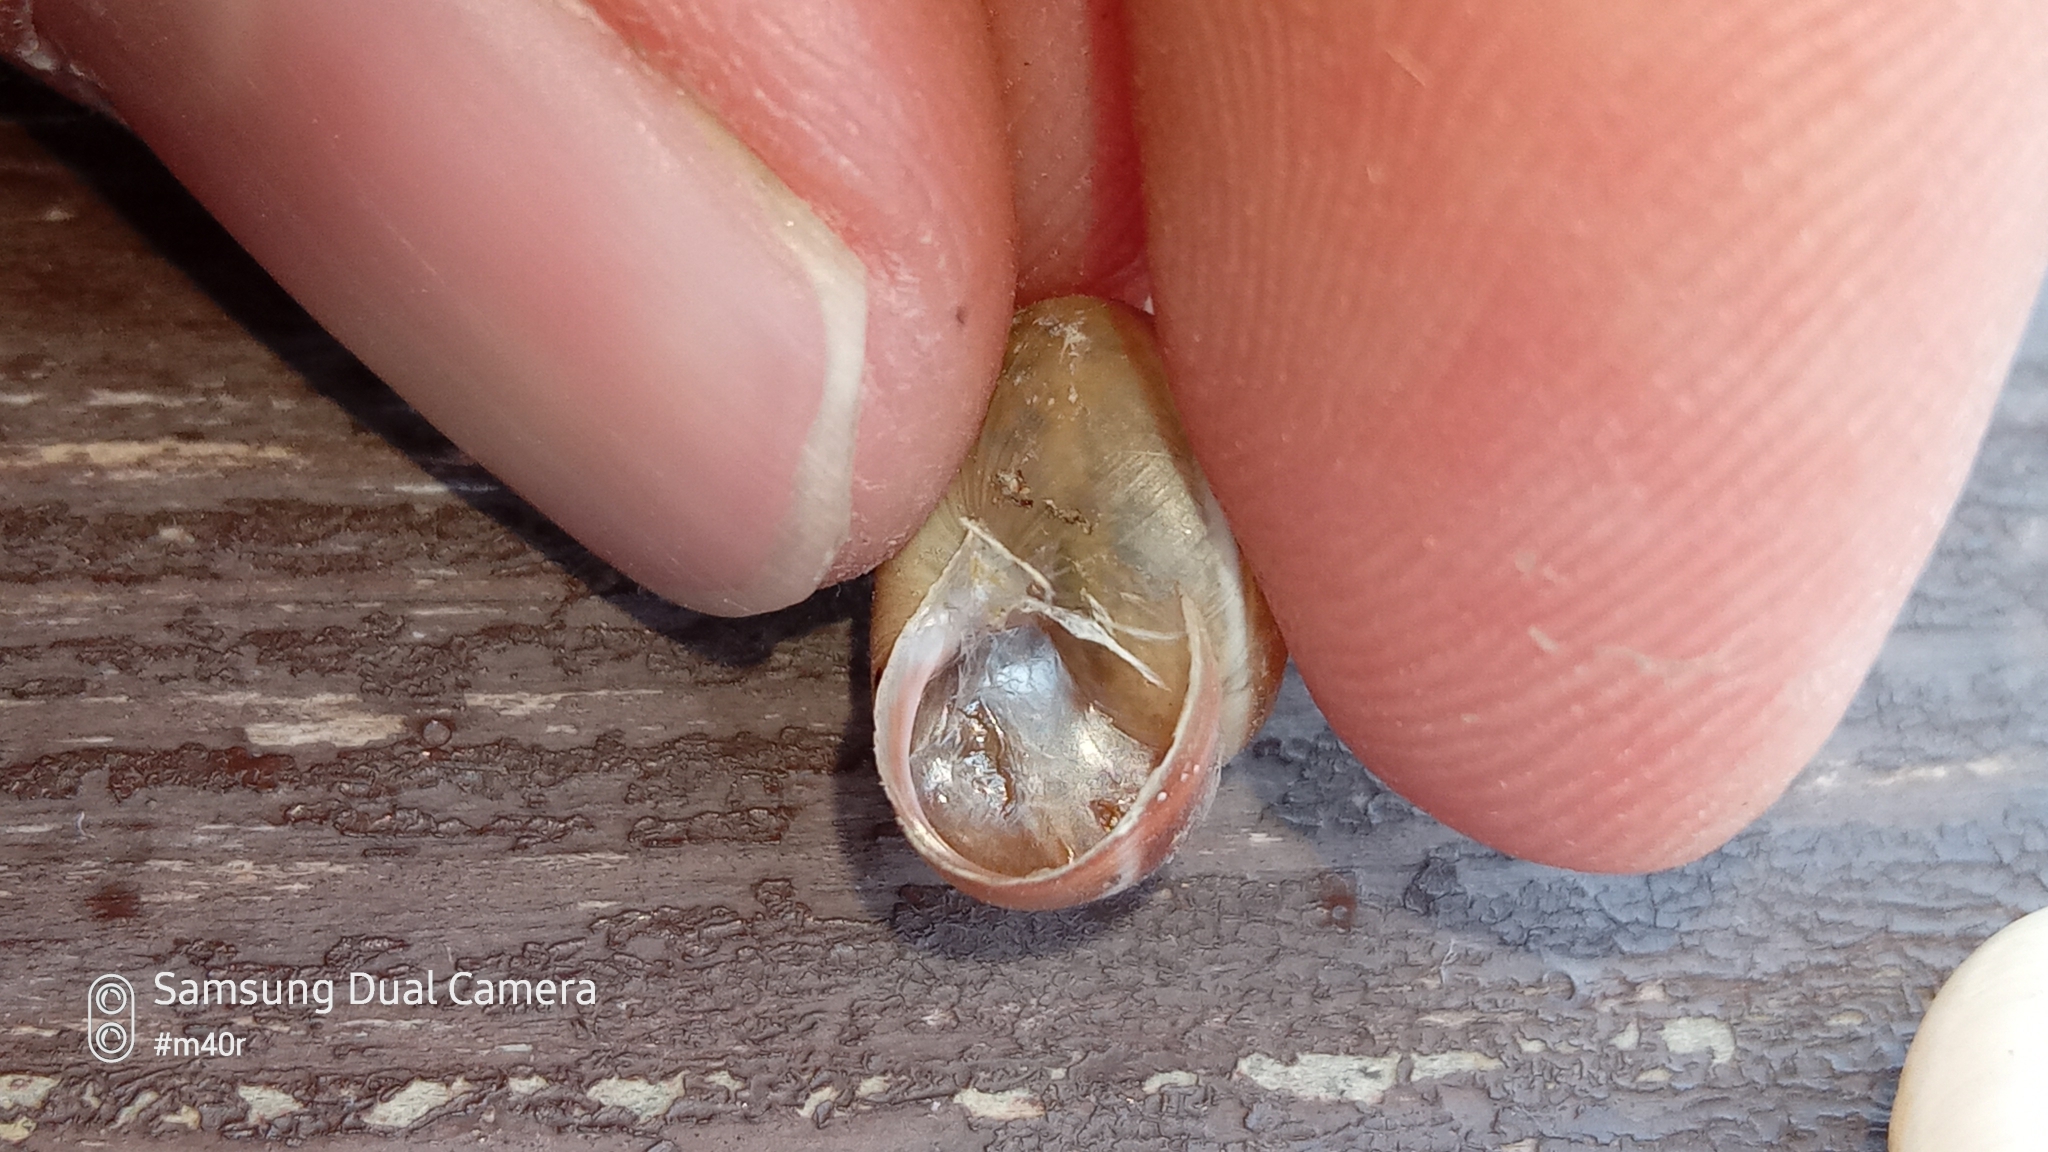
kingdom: Animalia
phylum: Mollusca
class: Gastropoda
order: Stylommatophora
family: Hygromiidae
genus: Harmozica
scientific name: Harmozica ravergiensis
